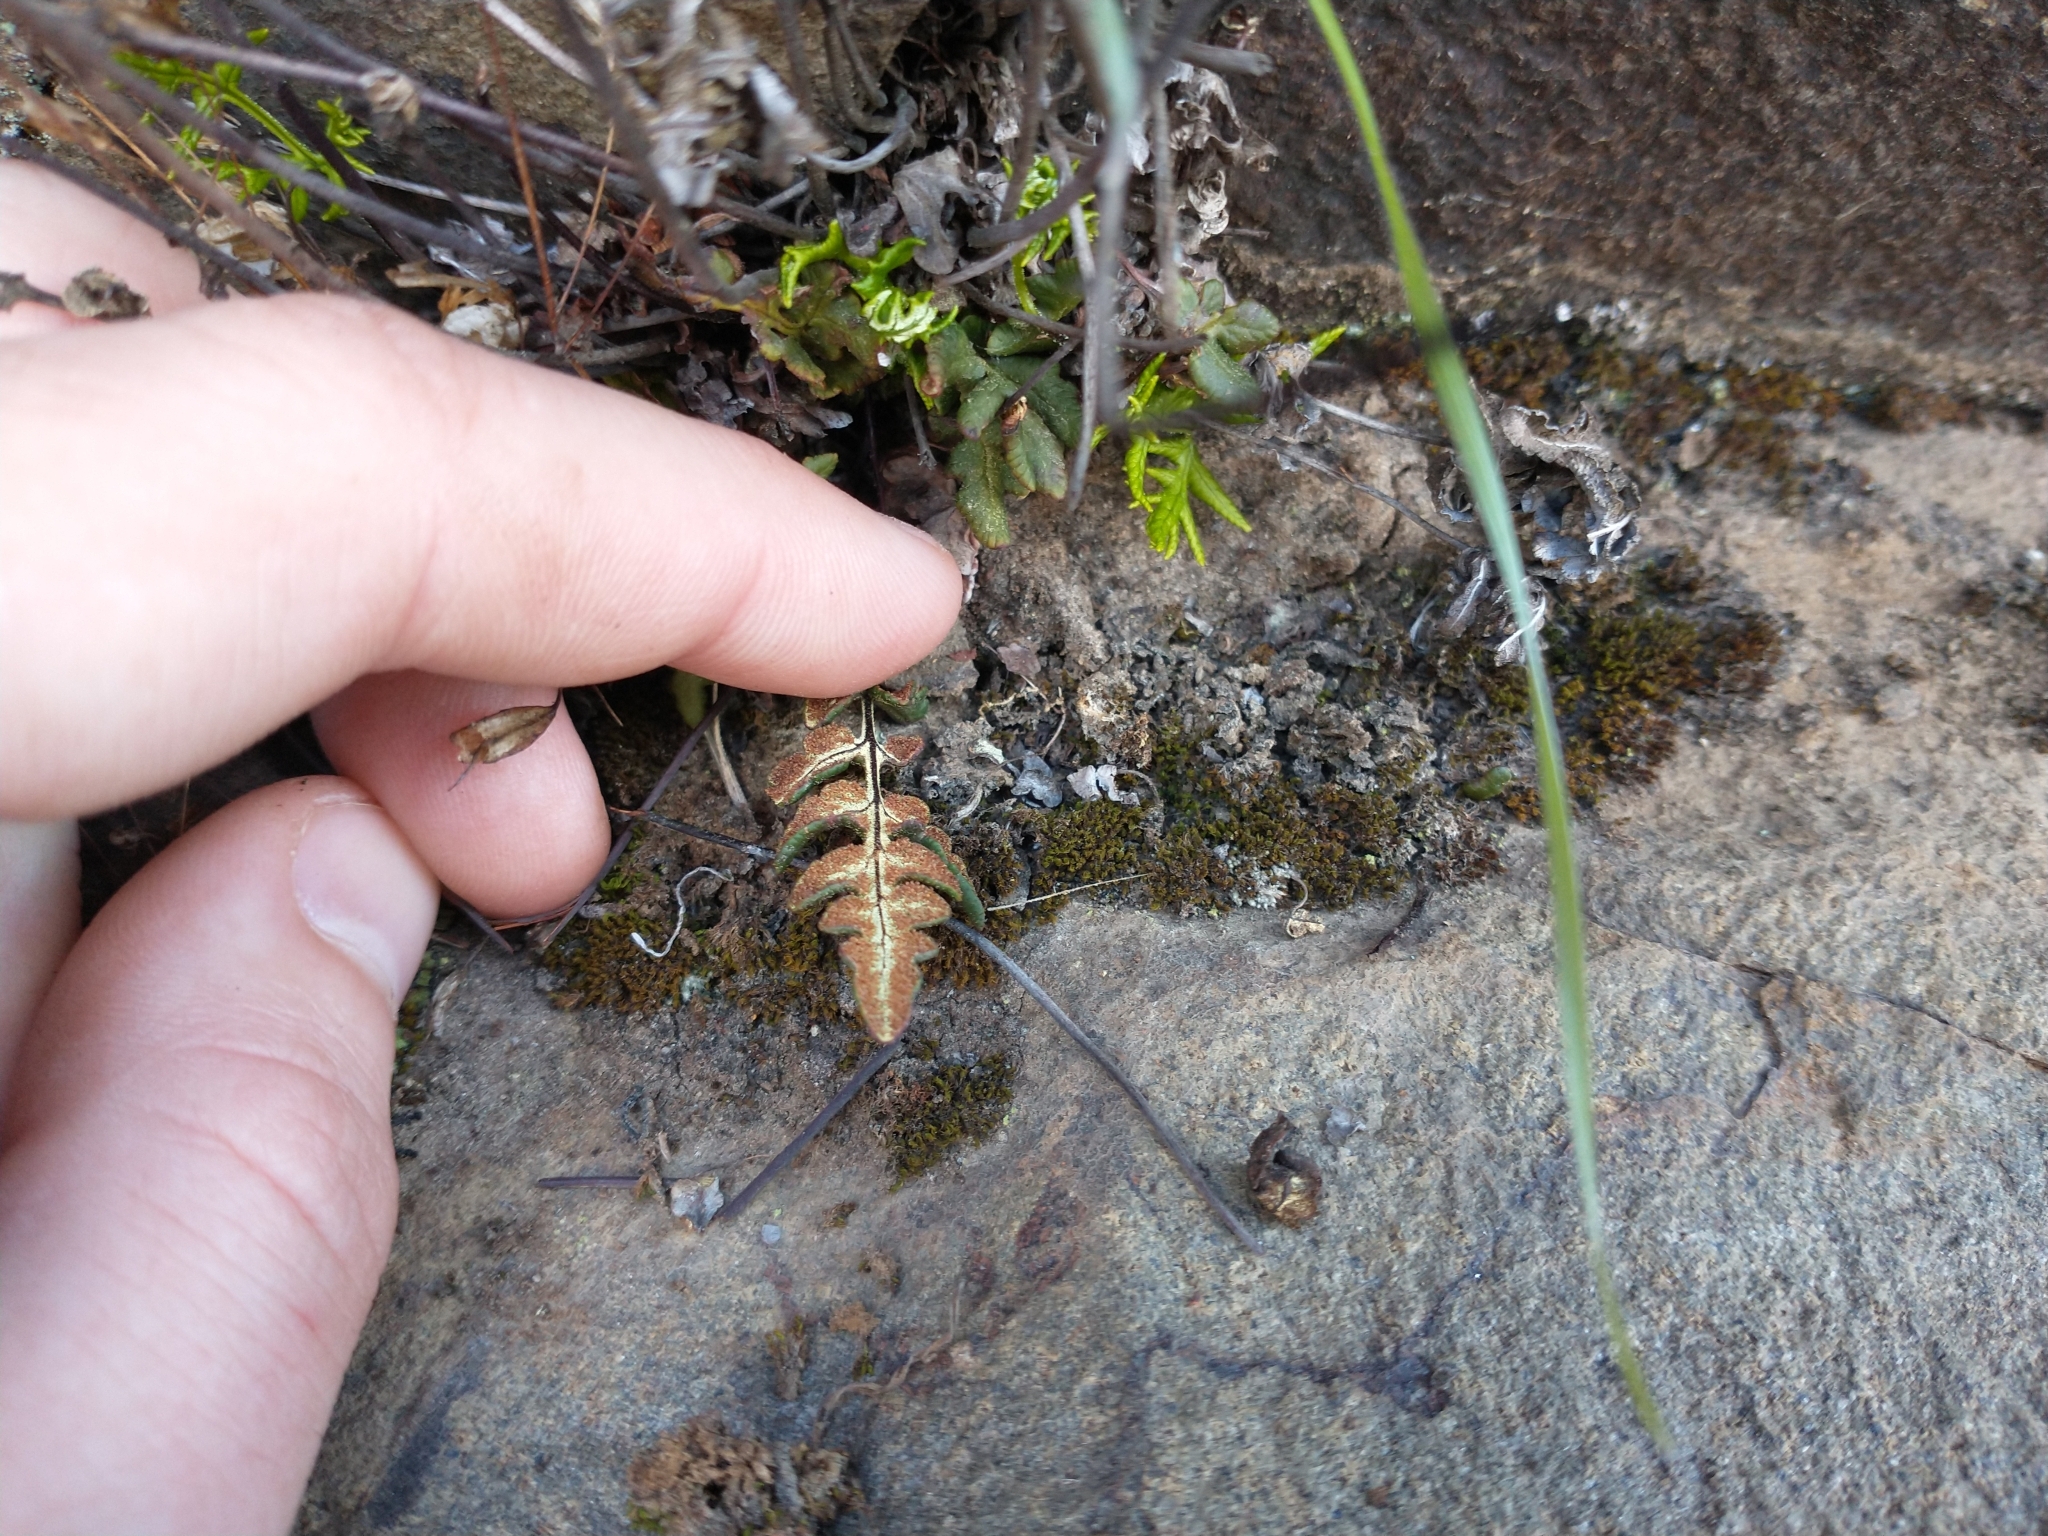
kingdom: Plantae
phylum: Tracheophyta
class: Polypodiopsida
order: Polypodiales
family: Pteridaceae
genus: Pentagramma
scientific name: Pentagramma triangularis
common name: Gold fern
